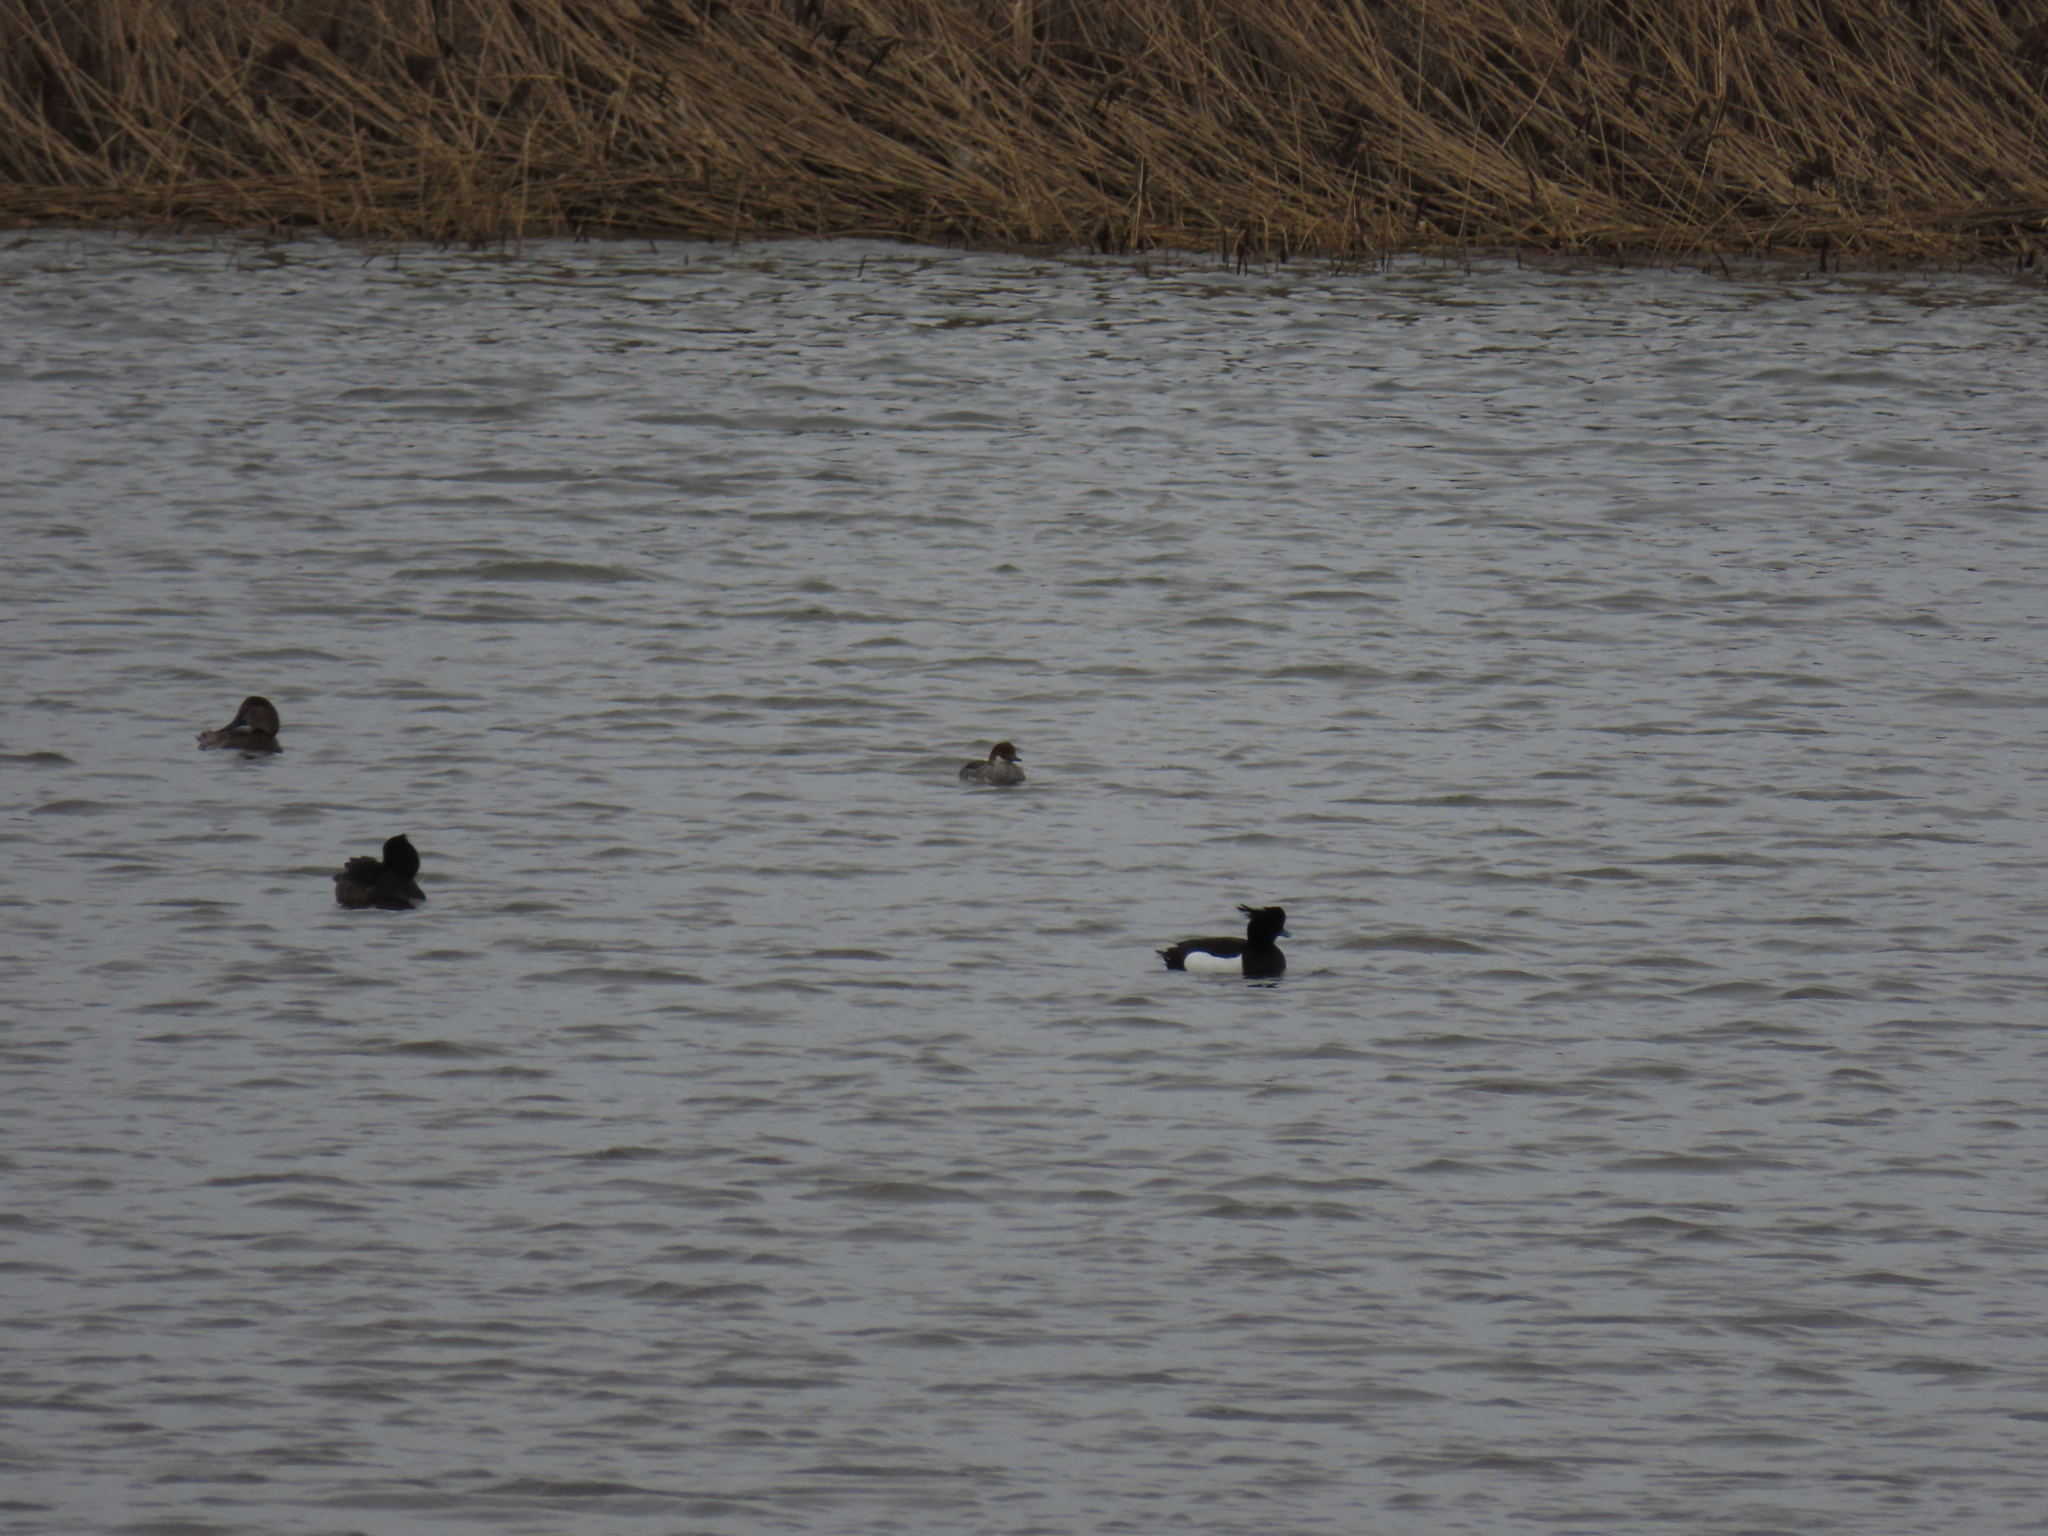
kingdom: Animalia
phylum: Chordata
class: Aves
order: Anseriformes
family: Anatidae
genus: Aythya
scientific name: Aythya fuligula
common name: Tufted duck
